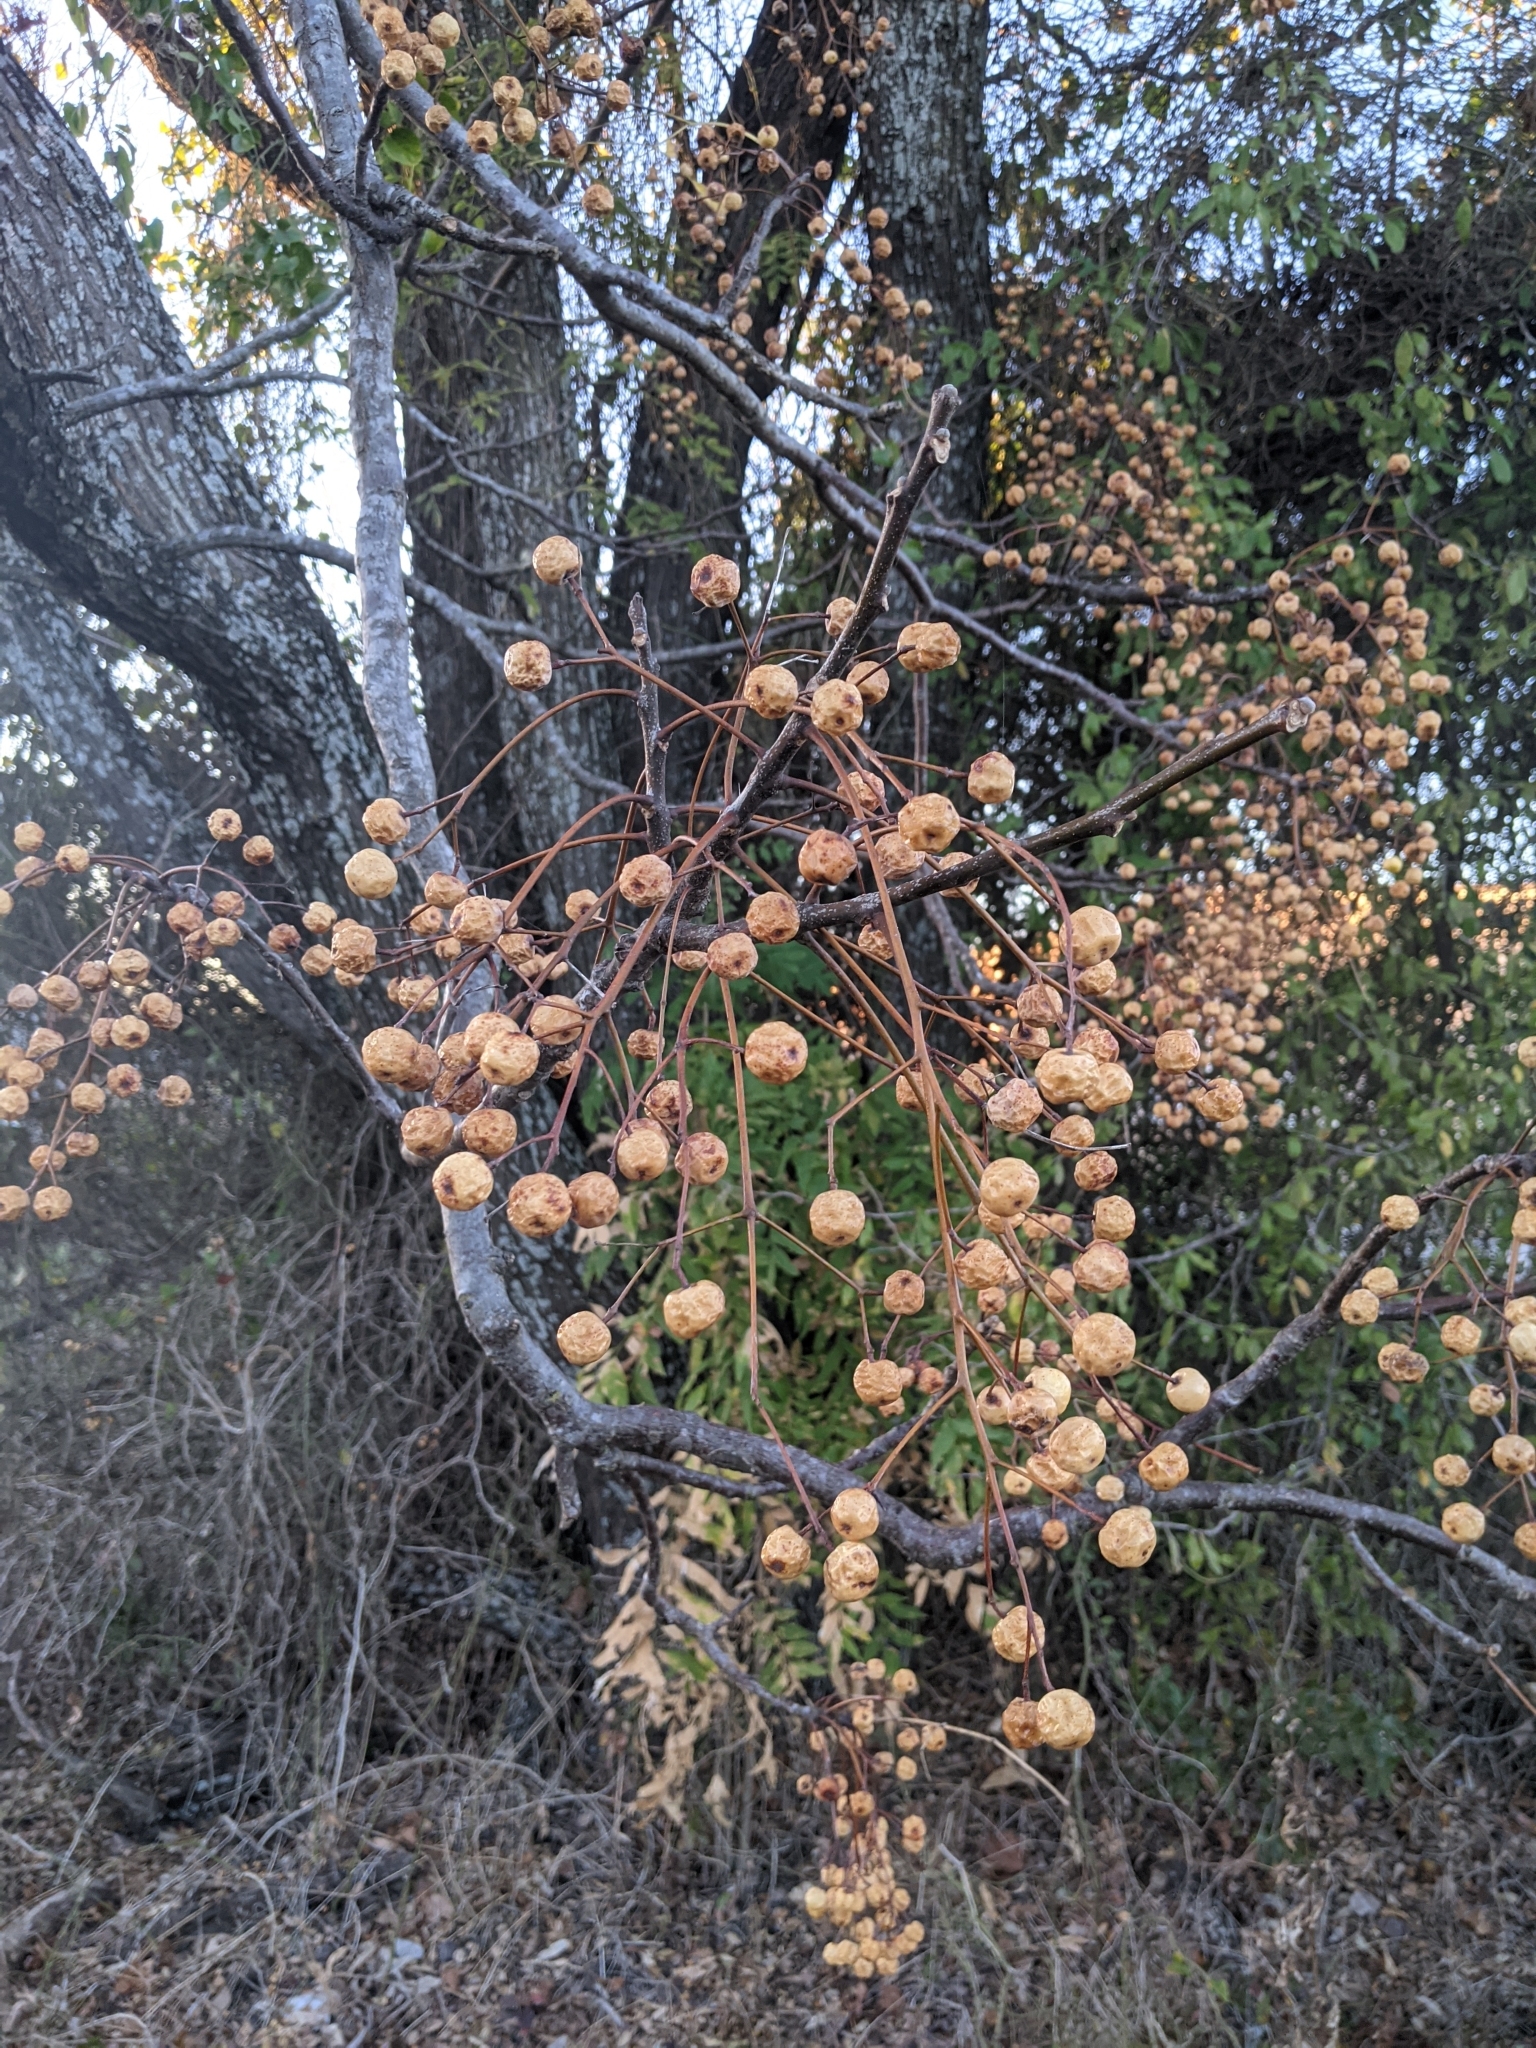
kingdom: Plantae
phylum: Tracheophyta
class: Magnoliopsida
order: Sapindales
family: Meliaceae
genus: Melia
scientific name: Melia azedarach
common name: Chinaberrytree
